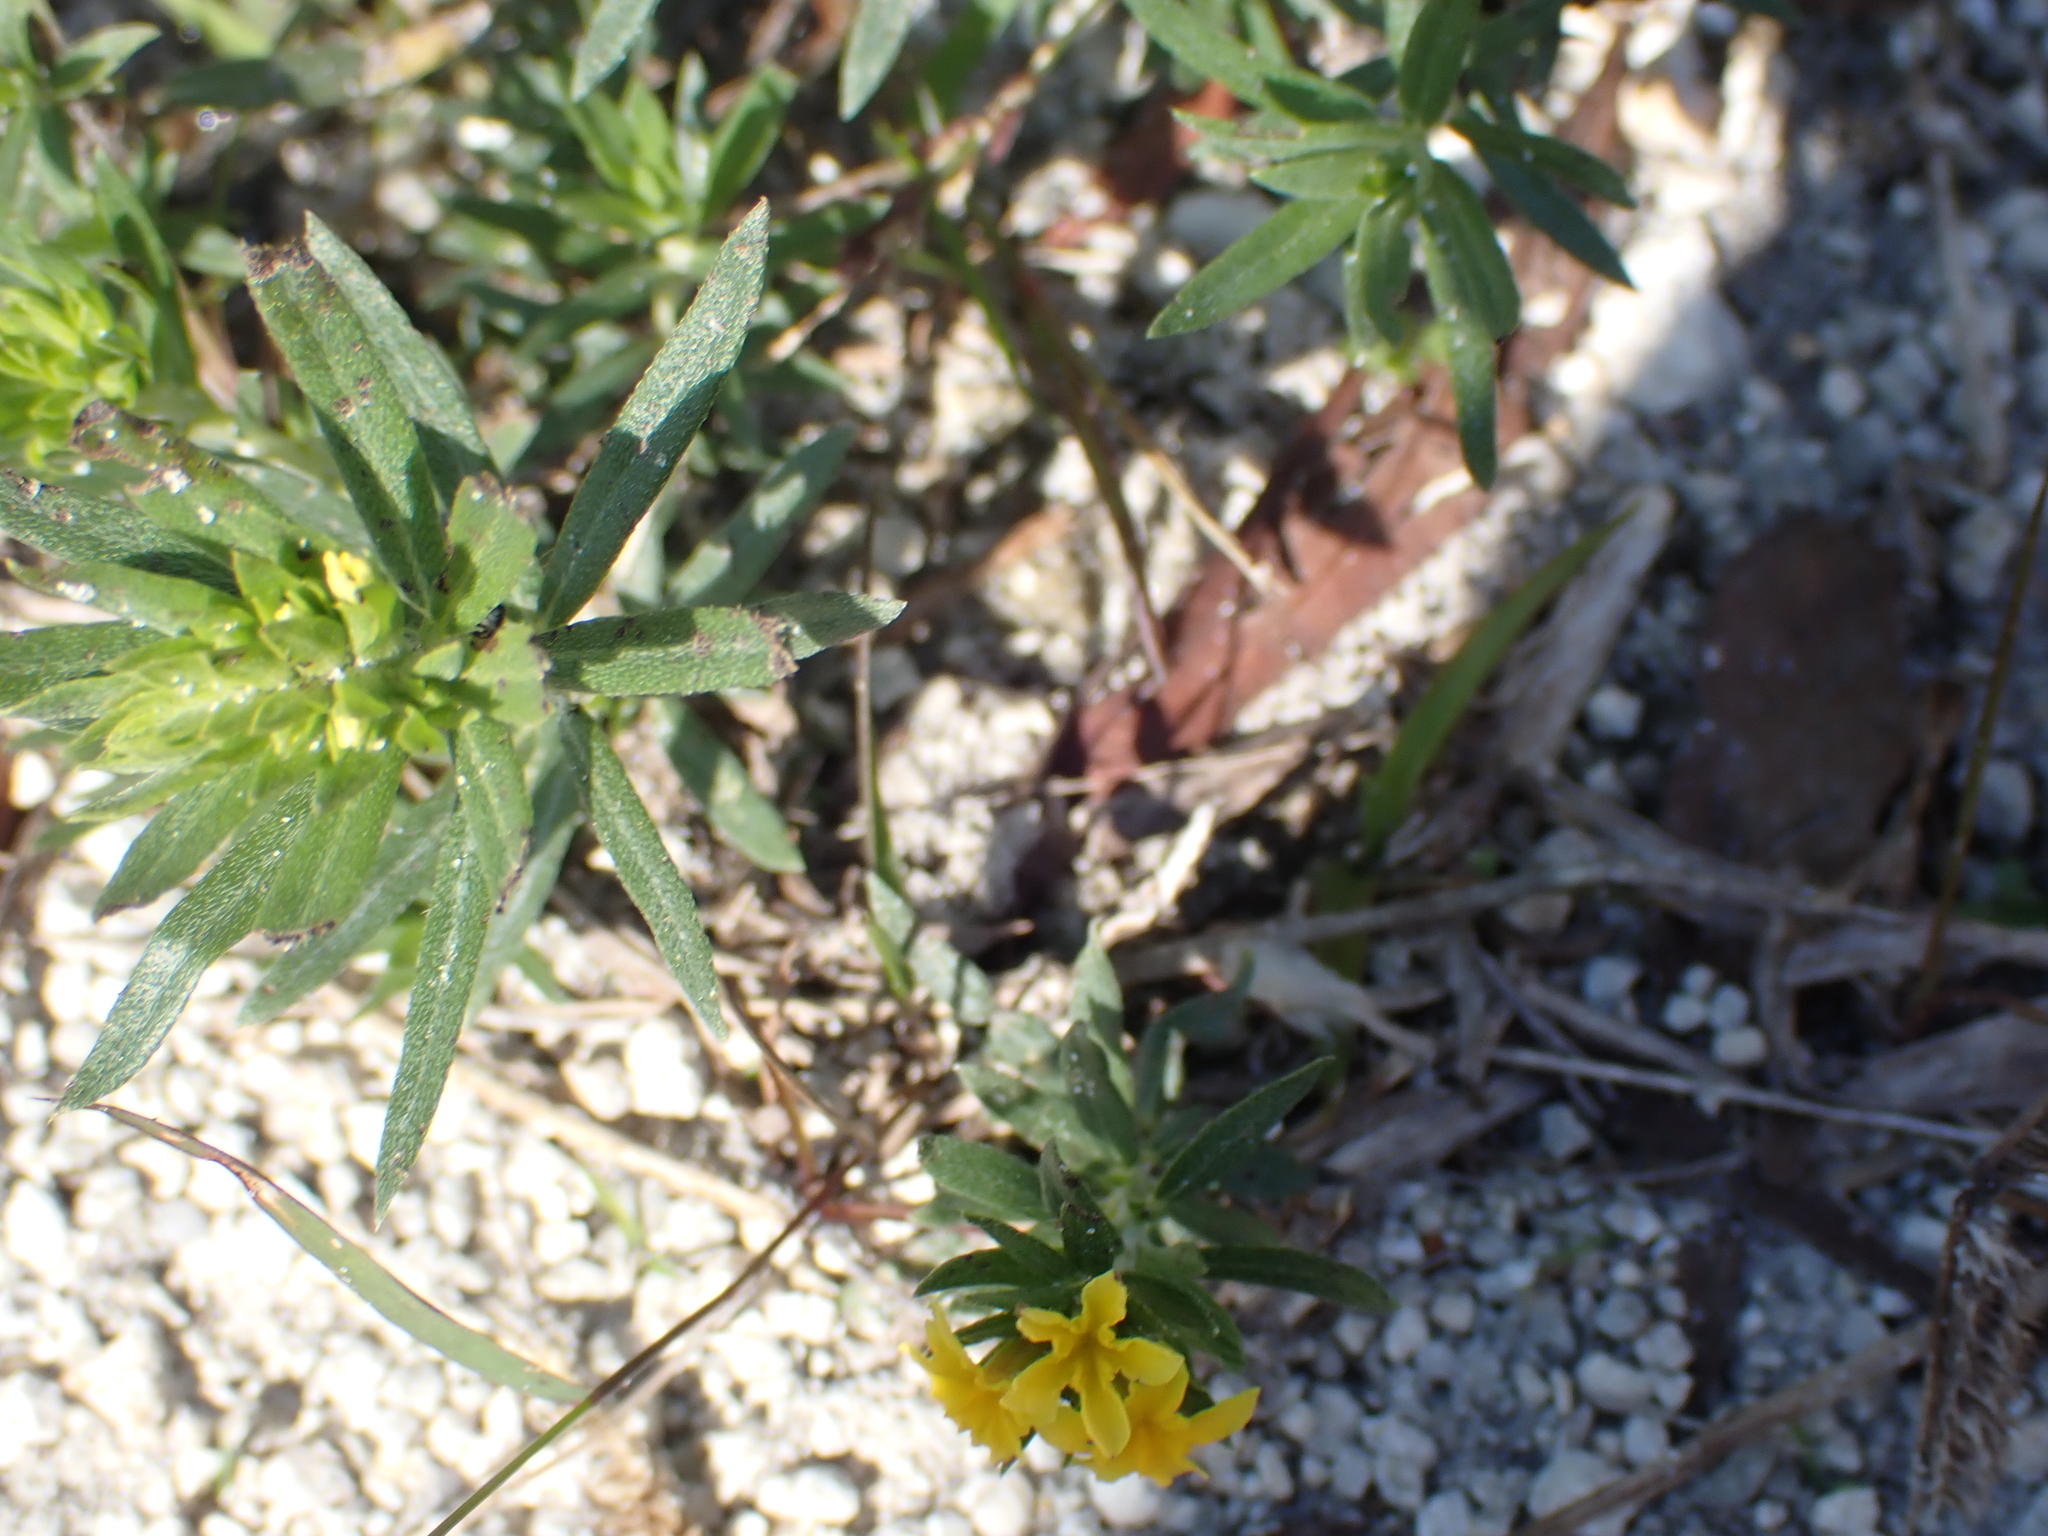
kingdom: Plantae
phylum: Tracheophyta
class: Magnoliopsida
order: Boraginales
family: Heliotropiaceae
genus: Euploca
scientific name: Euploca polyphylla
